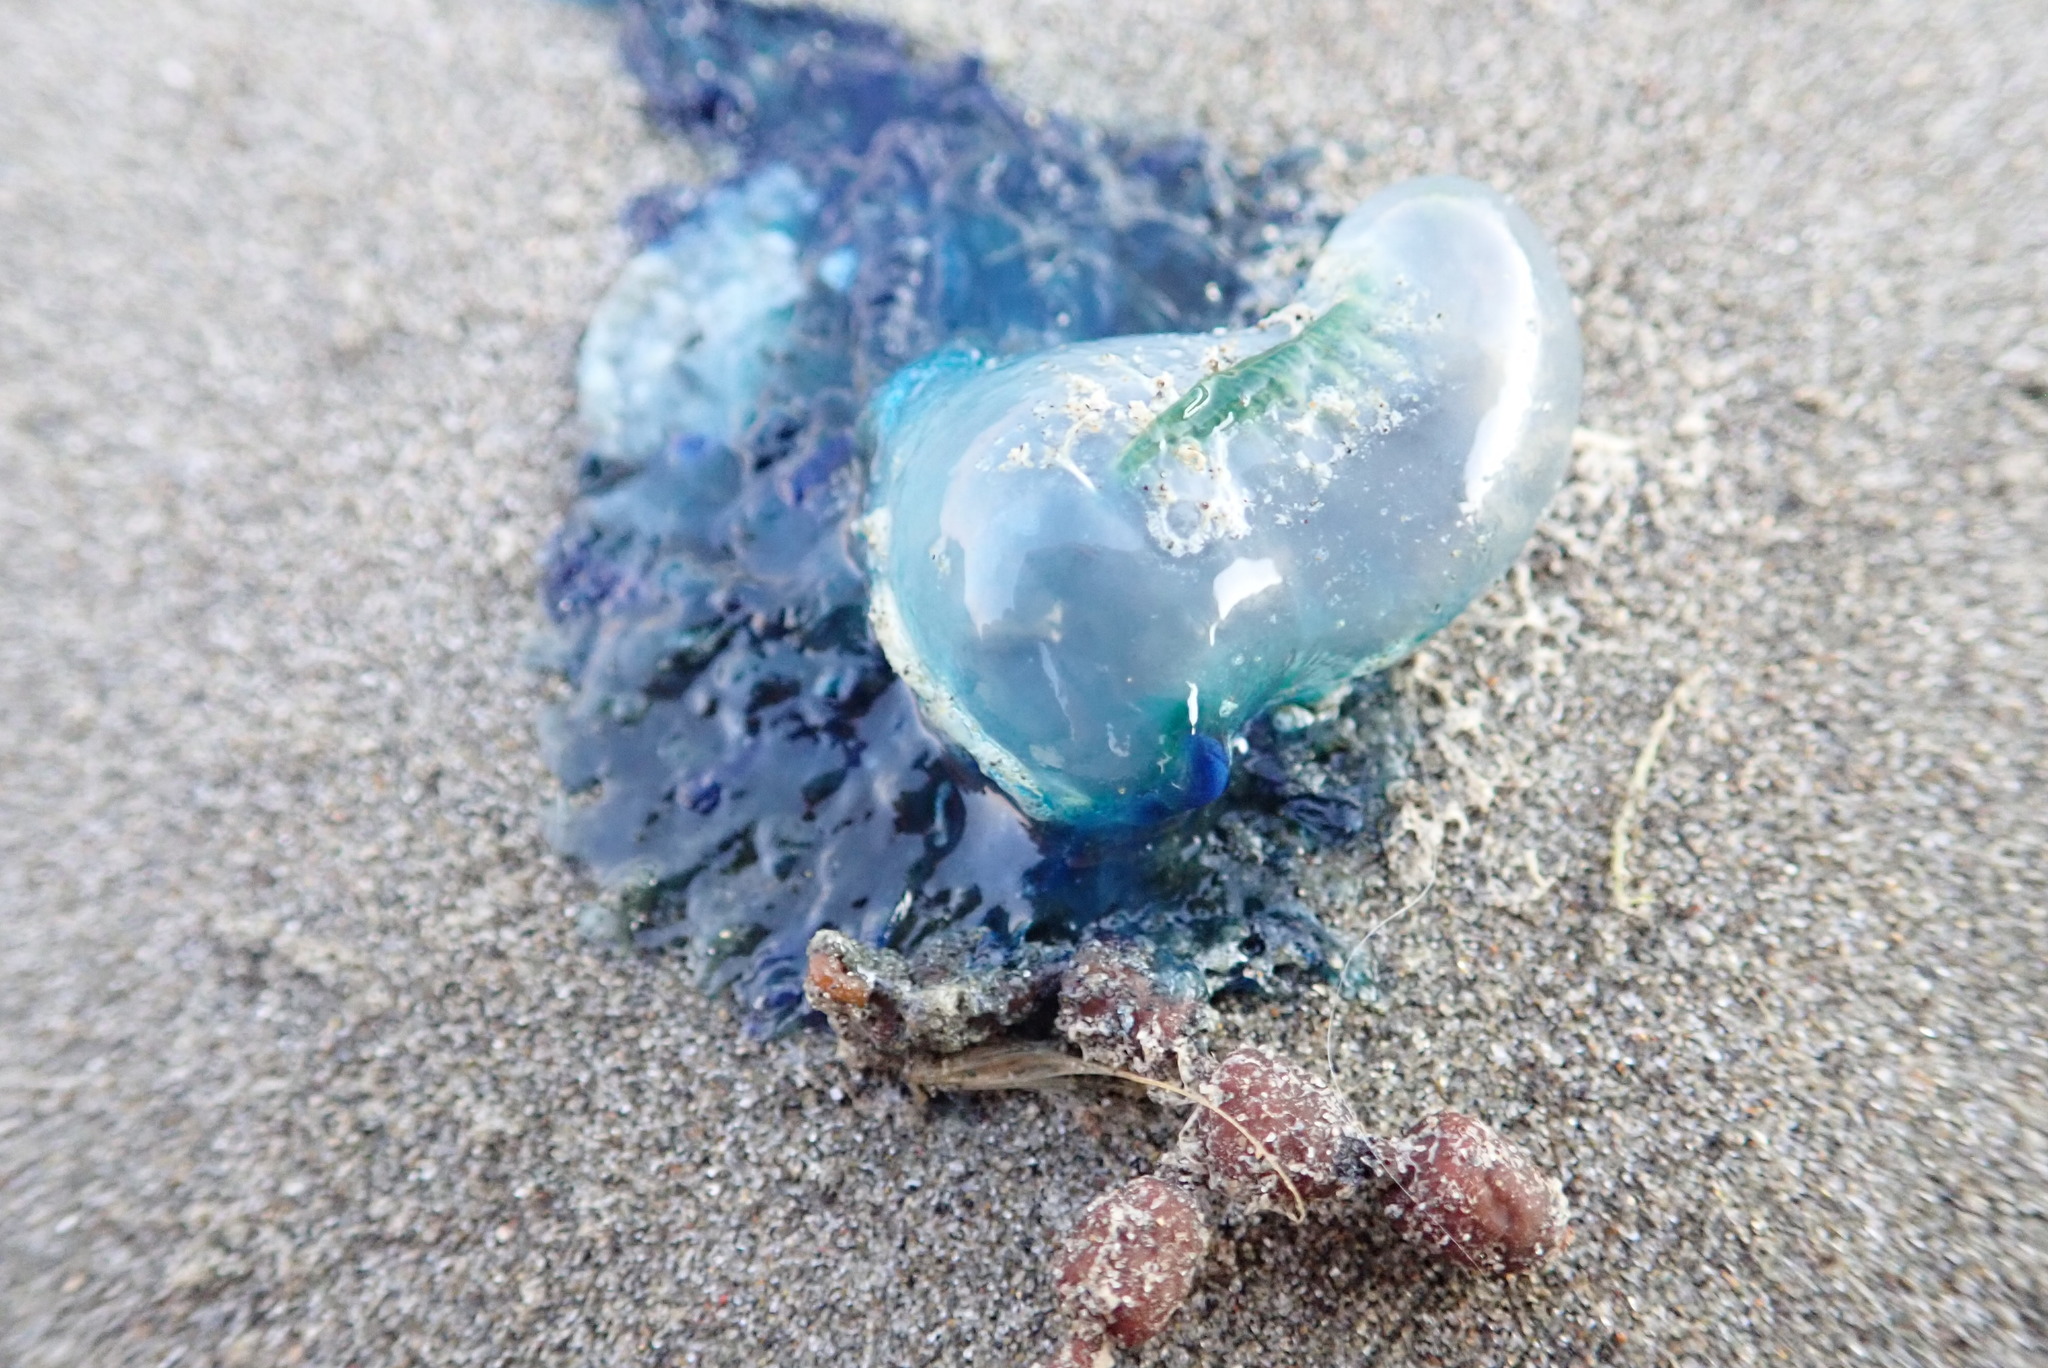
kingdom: Animalia
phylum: Cnidaria
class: Hydrozoa
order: Siphonophorae
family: Physaliidae
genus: Physalia
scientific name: Physalia physalis
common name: Portuguese man-of-war
